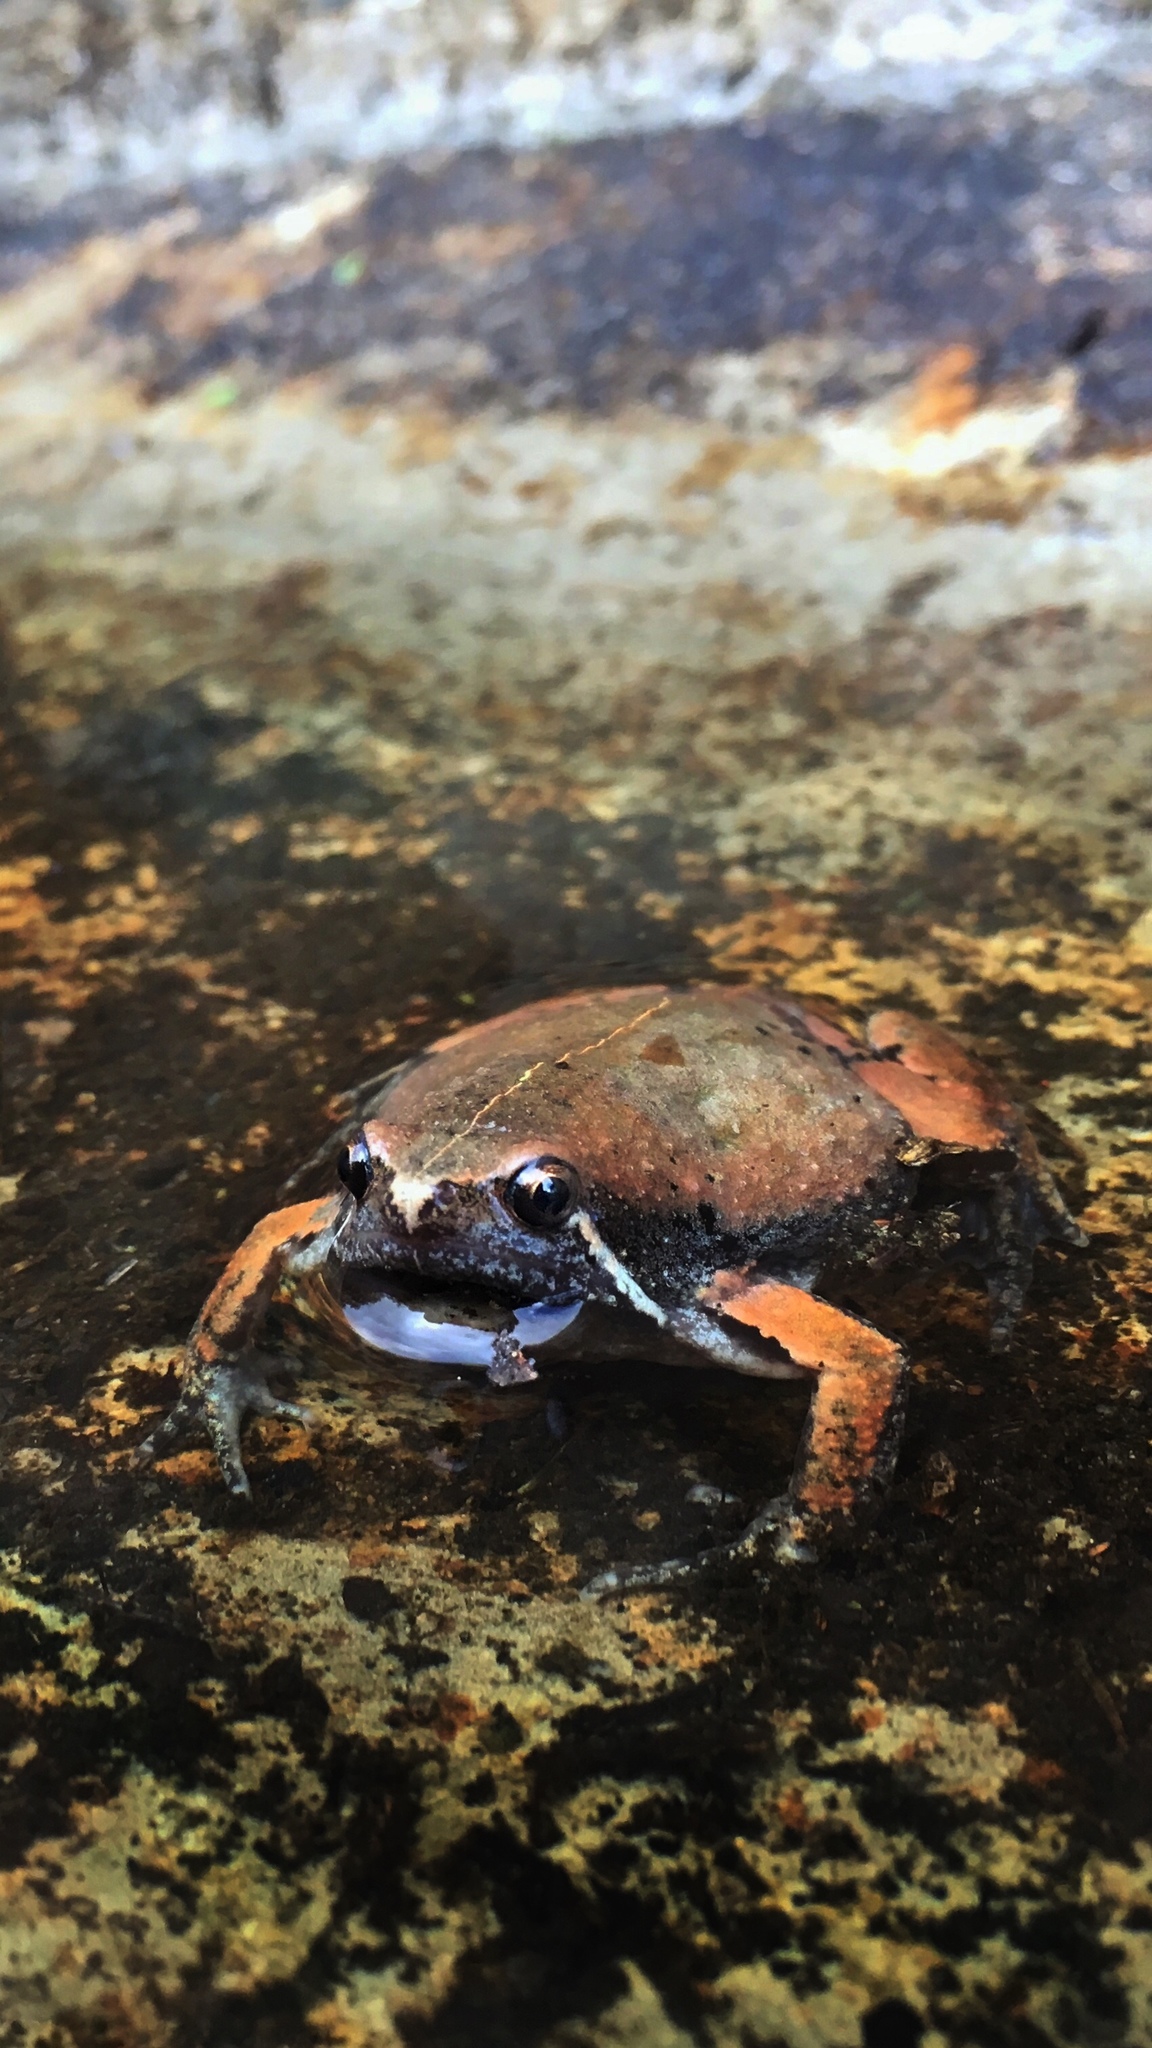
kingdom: Animalia
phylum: Chordata
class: Amphibia
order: Anura
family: Microhylidae
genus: Hypopachus
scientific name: Hypopachus variolosus
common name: Sheep frog
